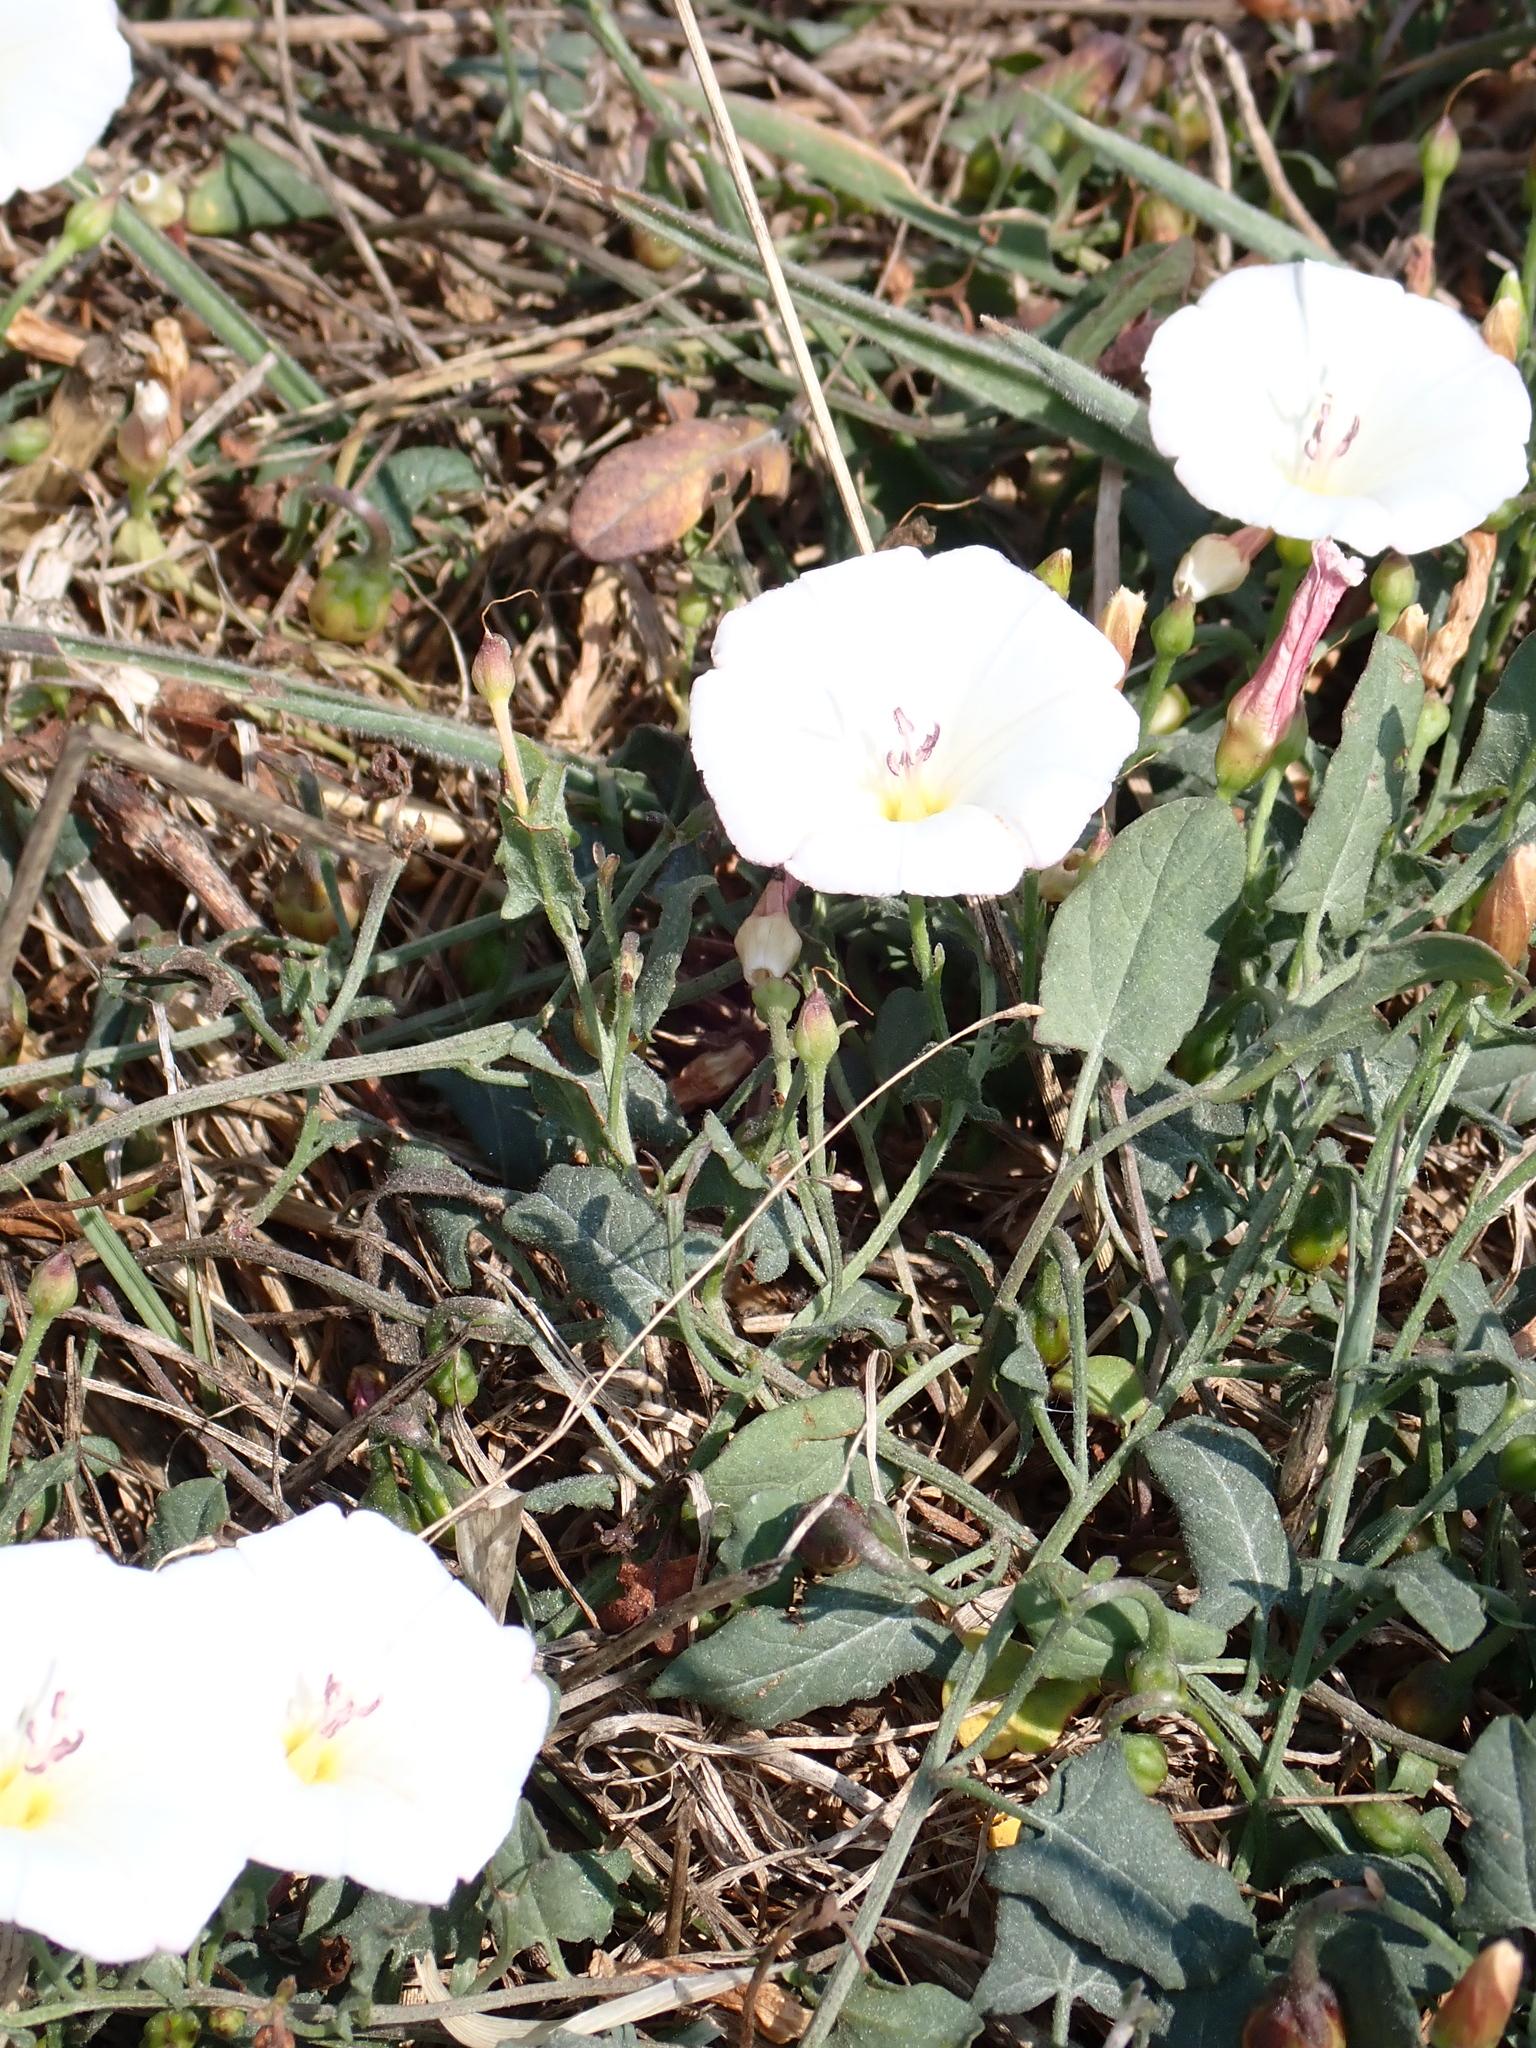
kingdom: Plantae
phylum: Tracheophyta
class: Magnoliopsida
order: Solanales
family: Convolvulaceae
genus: Convolvulus
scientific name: Convolvulus arvensis
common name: Field bindweed
